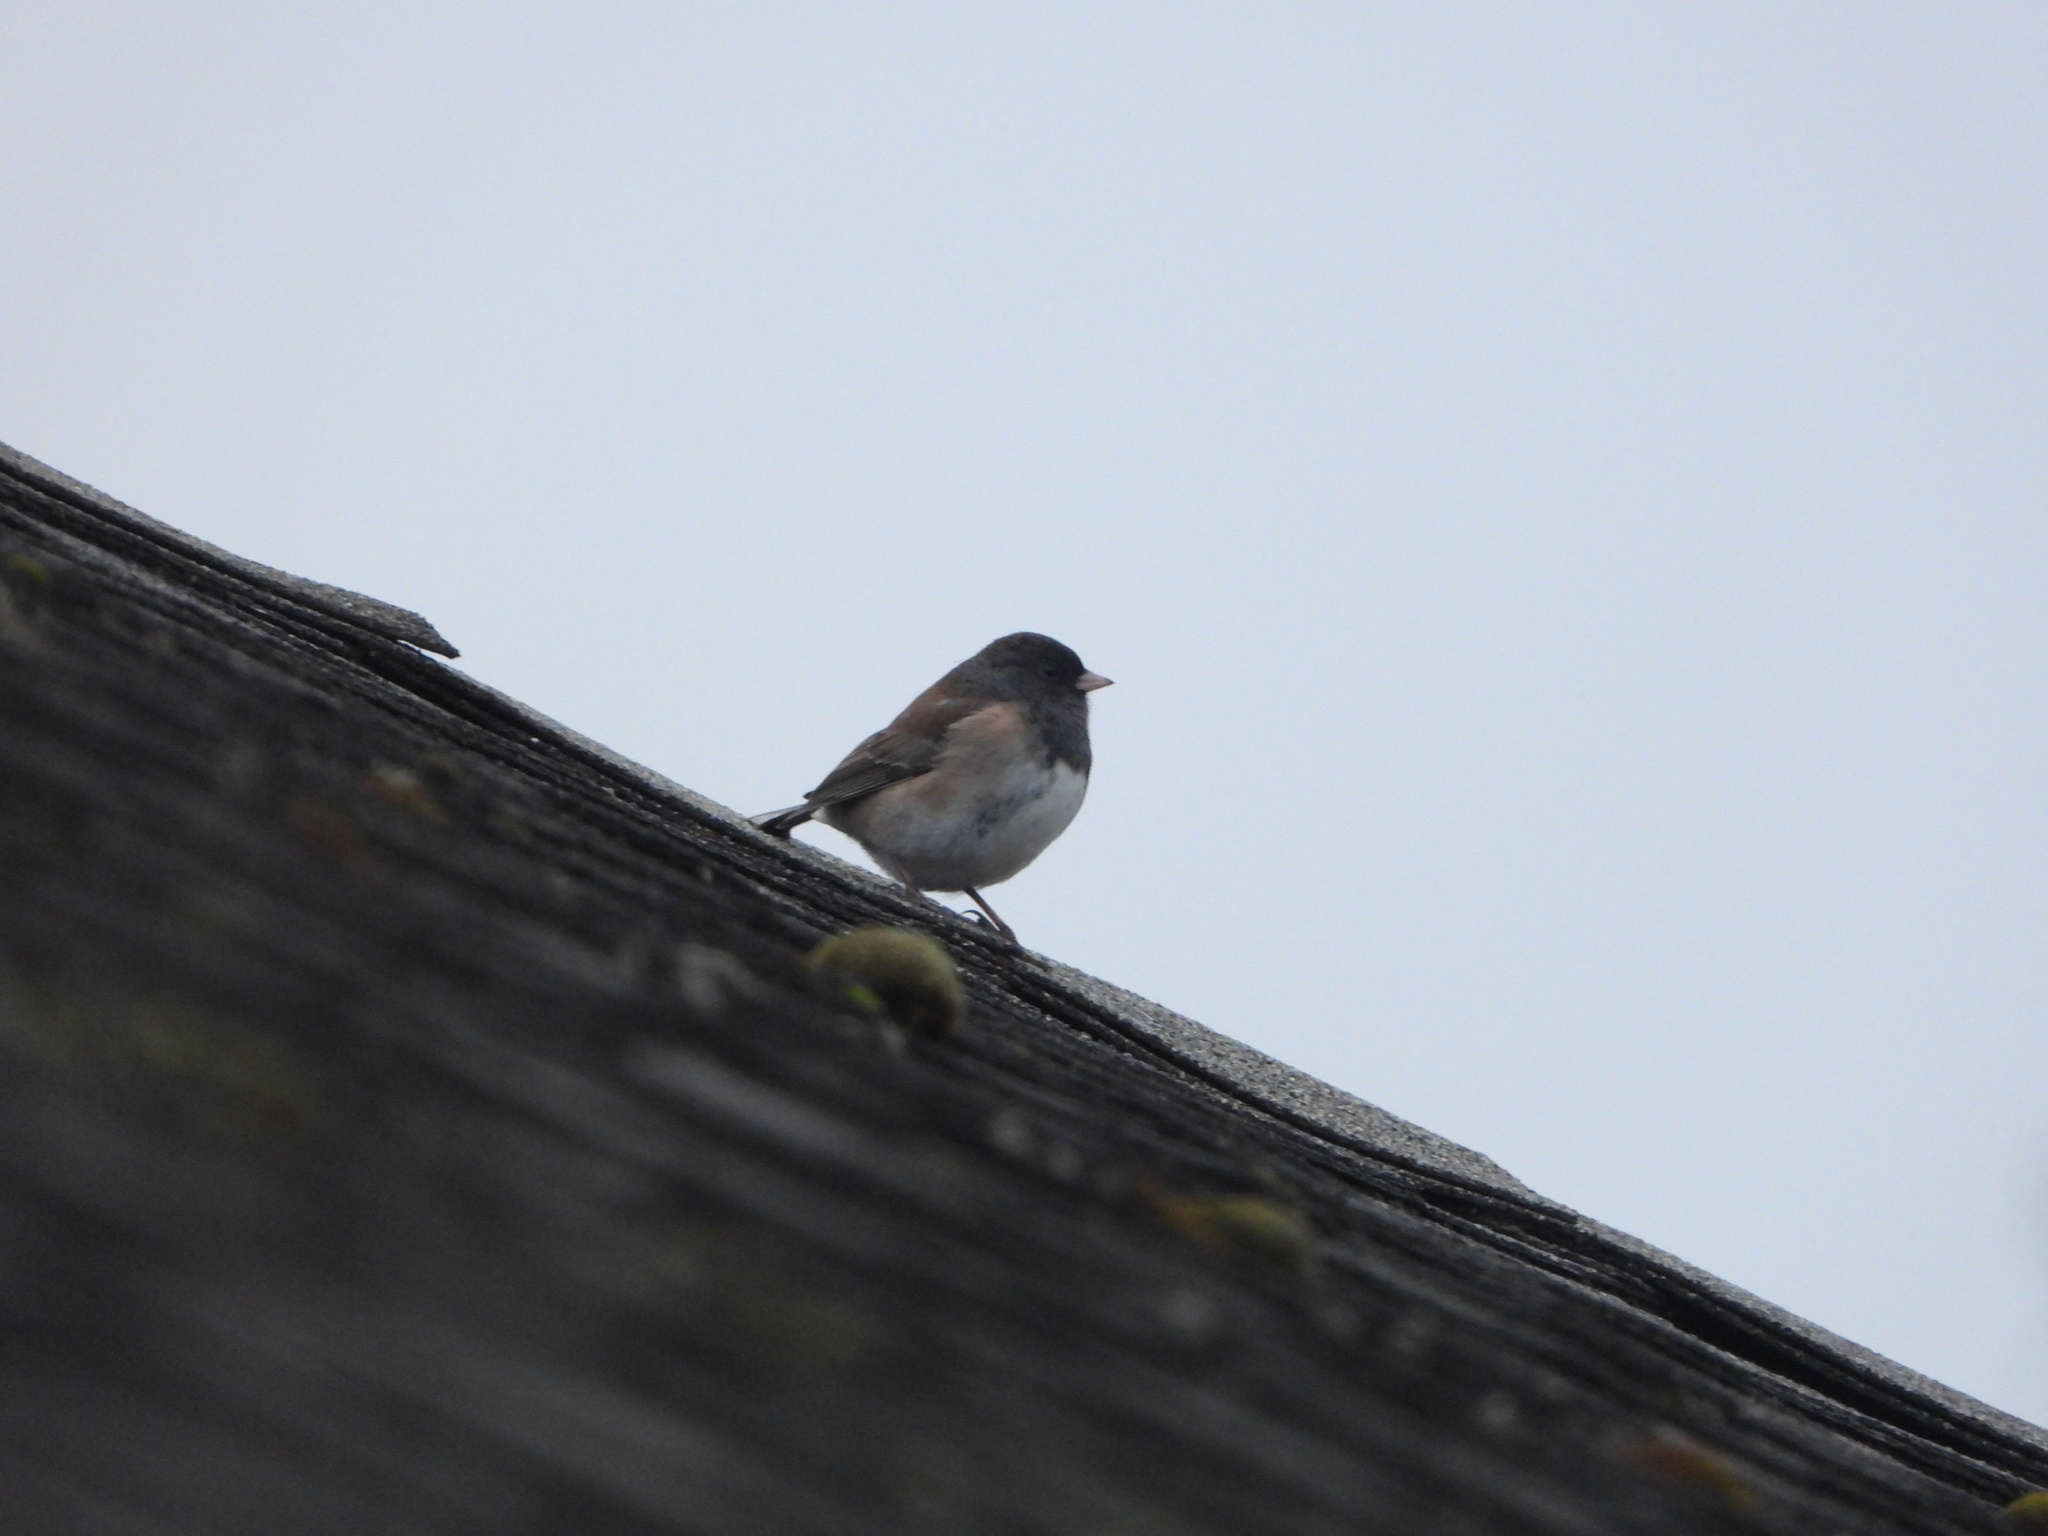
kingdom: Animalia
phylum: Chordata
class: Aves
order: Passeriformes
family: Passerellidae
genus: Junco
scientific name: Junco hyemalis
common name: Dark-eyed junco
